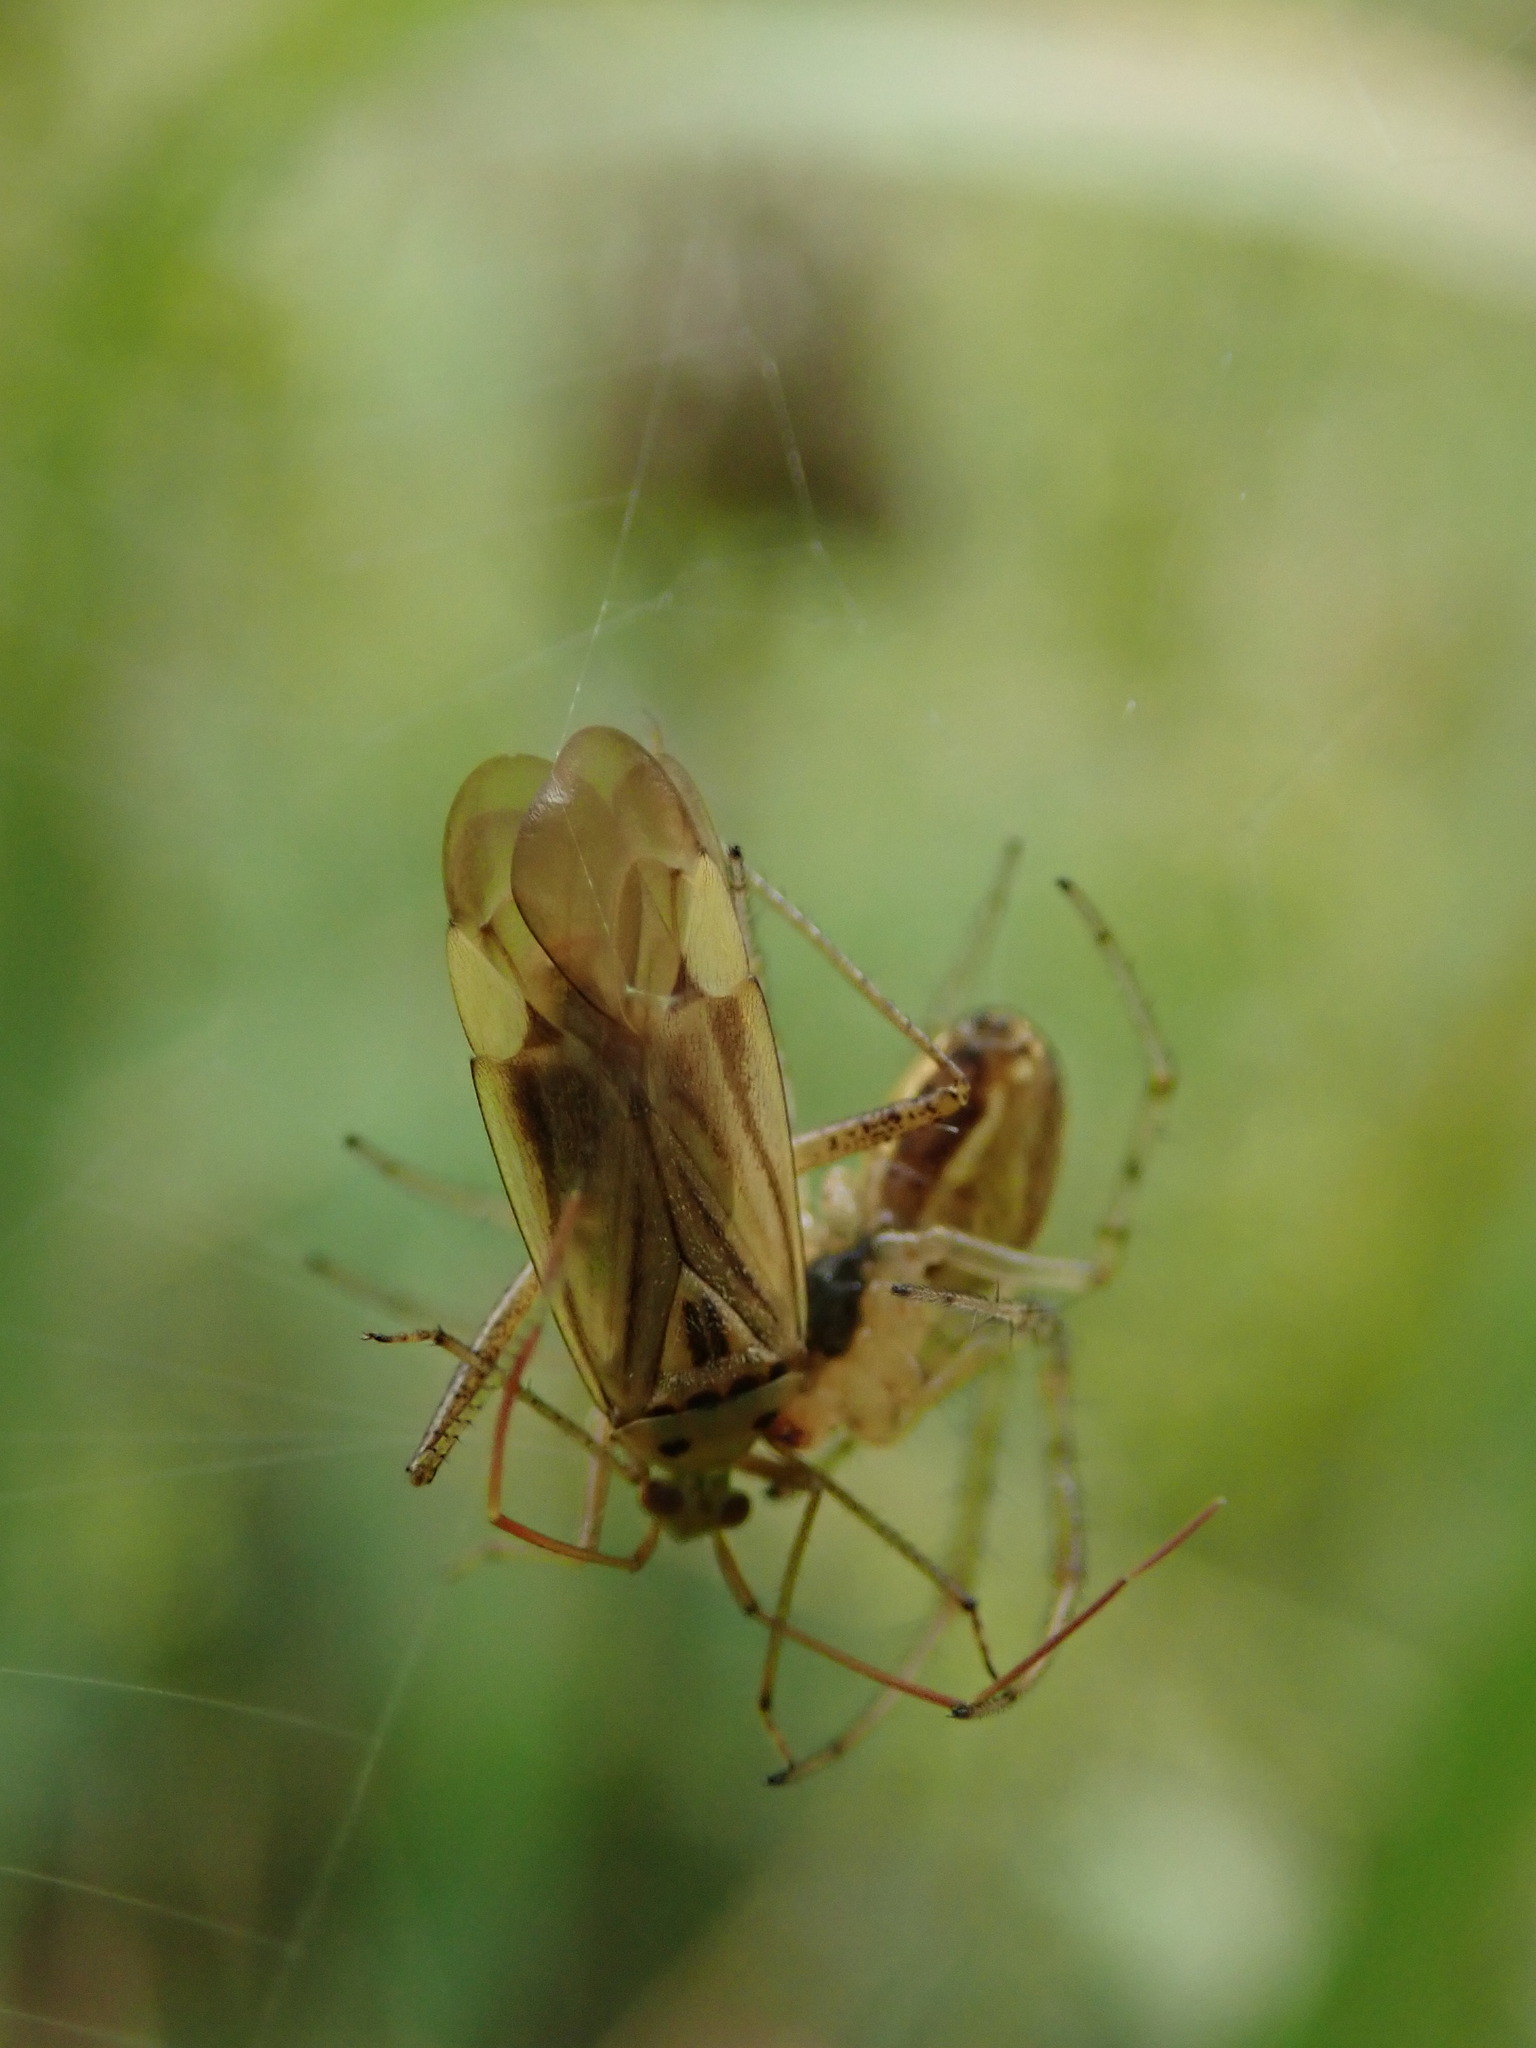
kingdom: Animalia
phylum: Arthropoda
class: Insecta
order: Hemiptera
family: Miridae
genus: Adelphocoris
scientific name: Adelphocoris lineolatus
